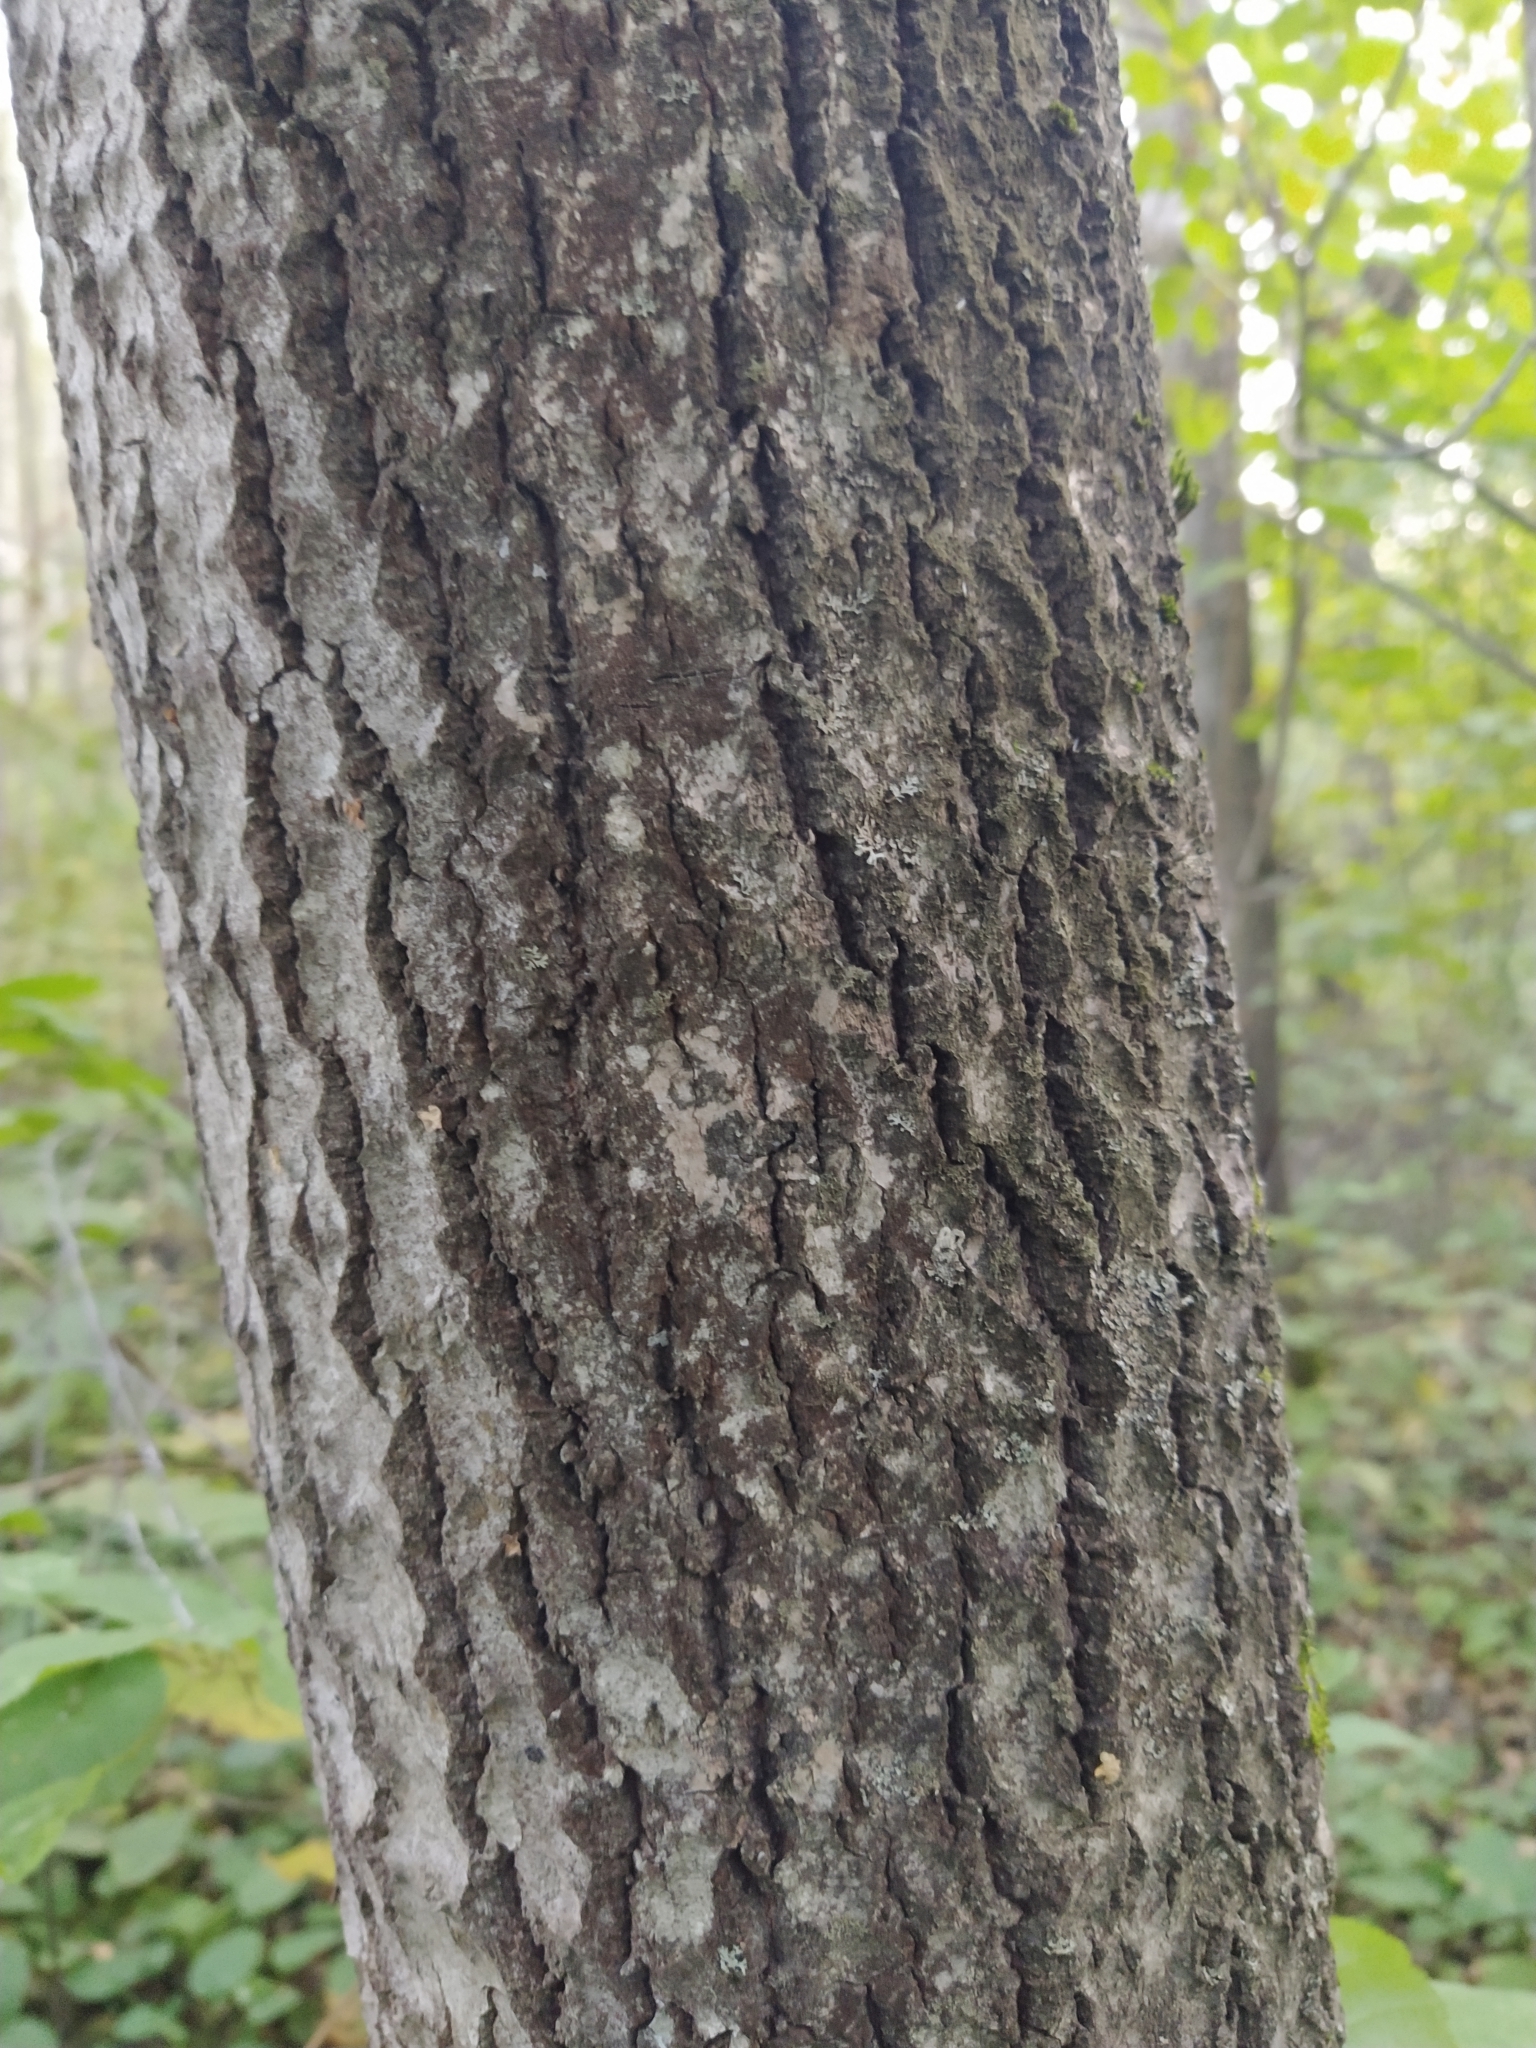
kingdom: Plantae
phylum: Tracheophyta
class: Magnoliopsida
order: Malpighiales
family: Salicaceae
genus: Populus
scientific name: Populus tremula
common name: European aspen
